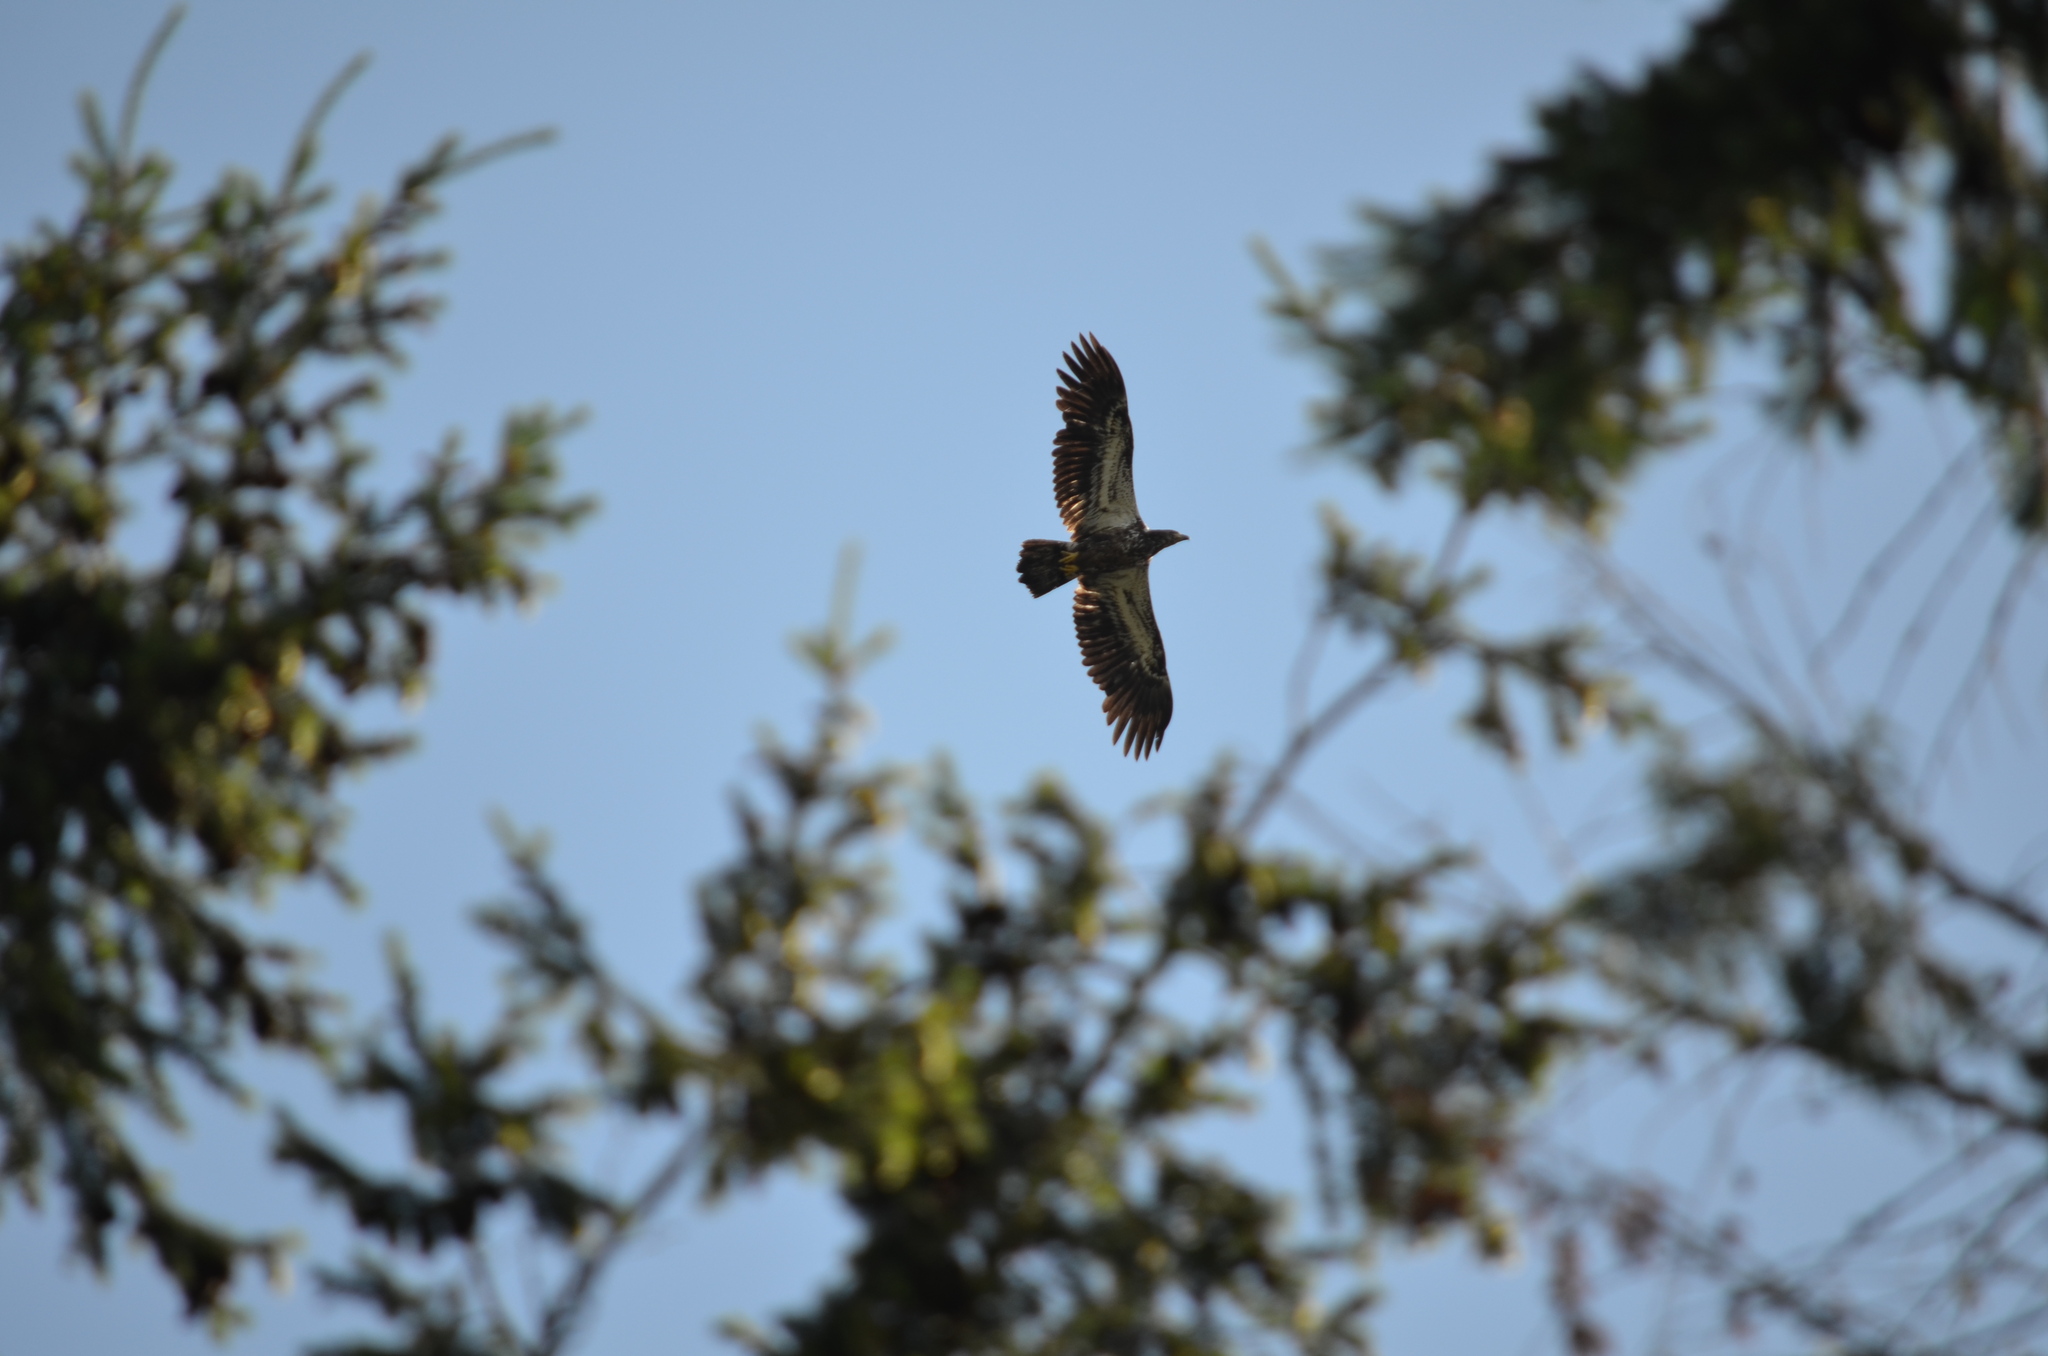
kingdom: Animalia
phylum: Chordata
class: Aves
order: Accipitriformes
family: Accipitridae
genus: Haliaeetus
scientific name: Haliaeetus leucocephalus
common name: Bald eagle
